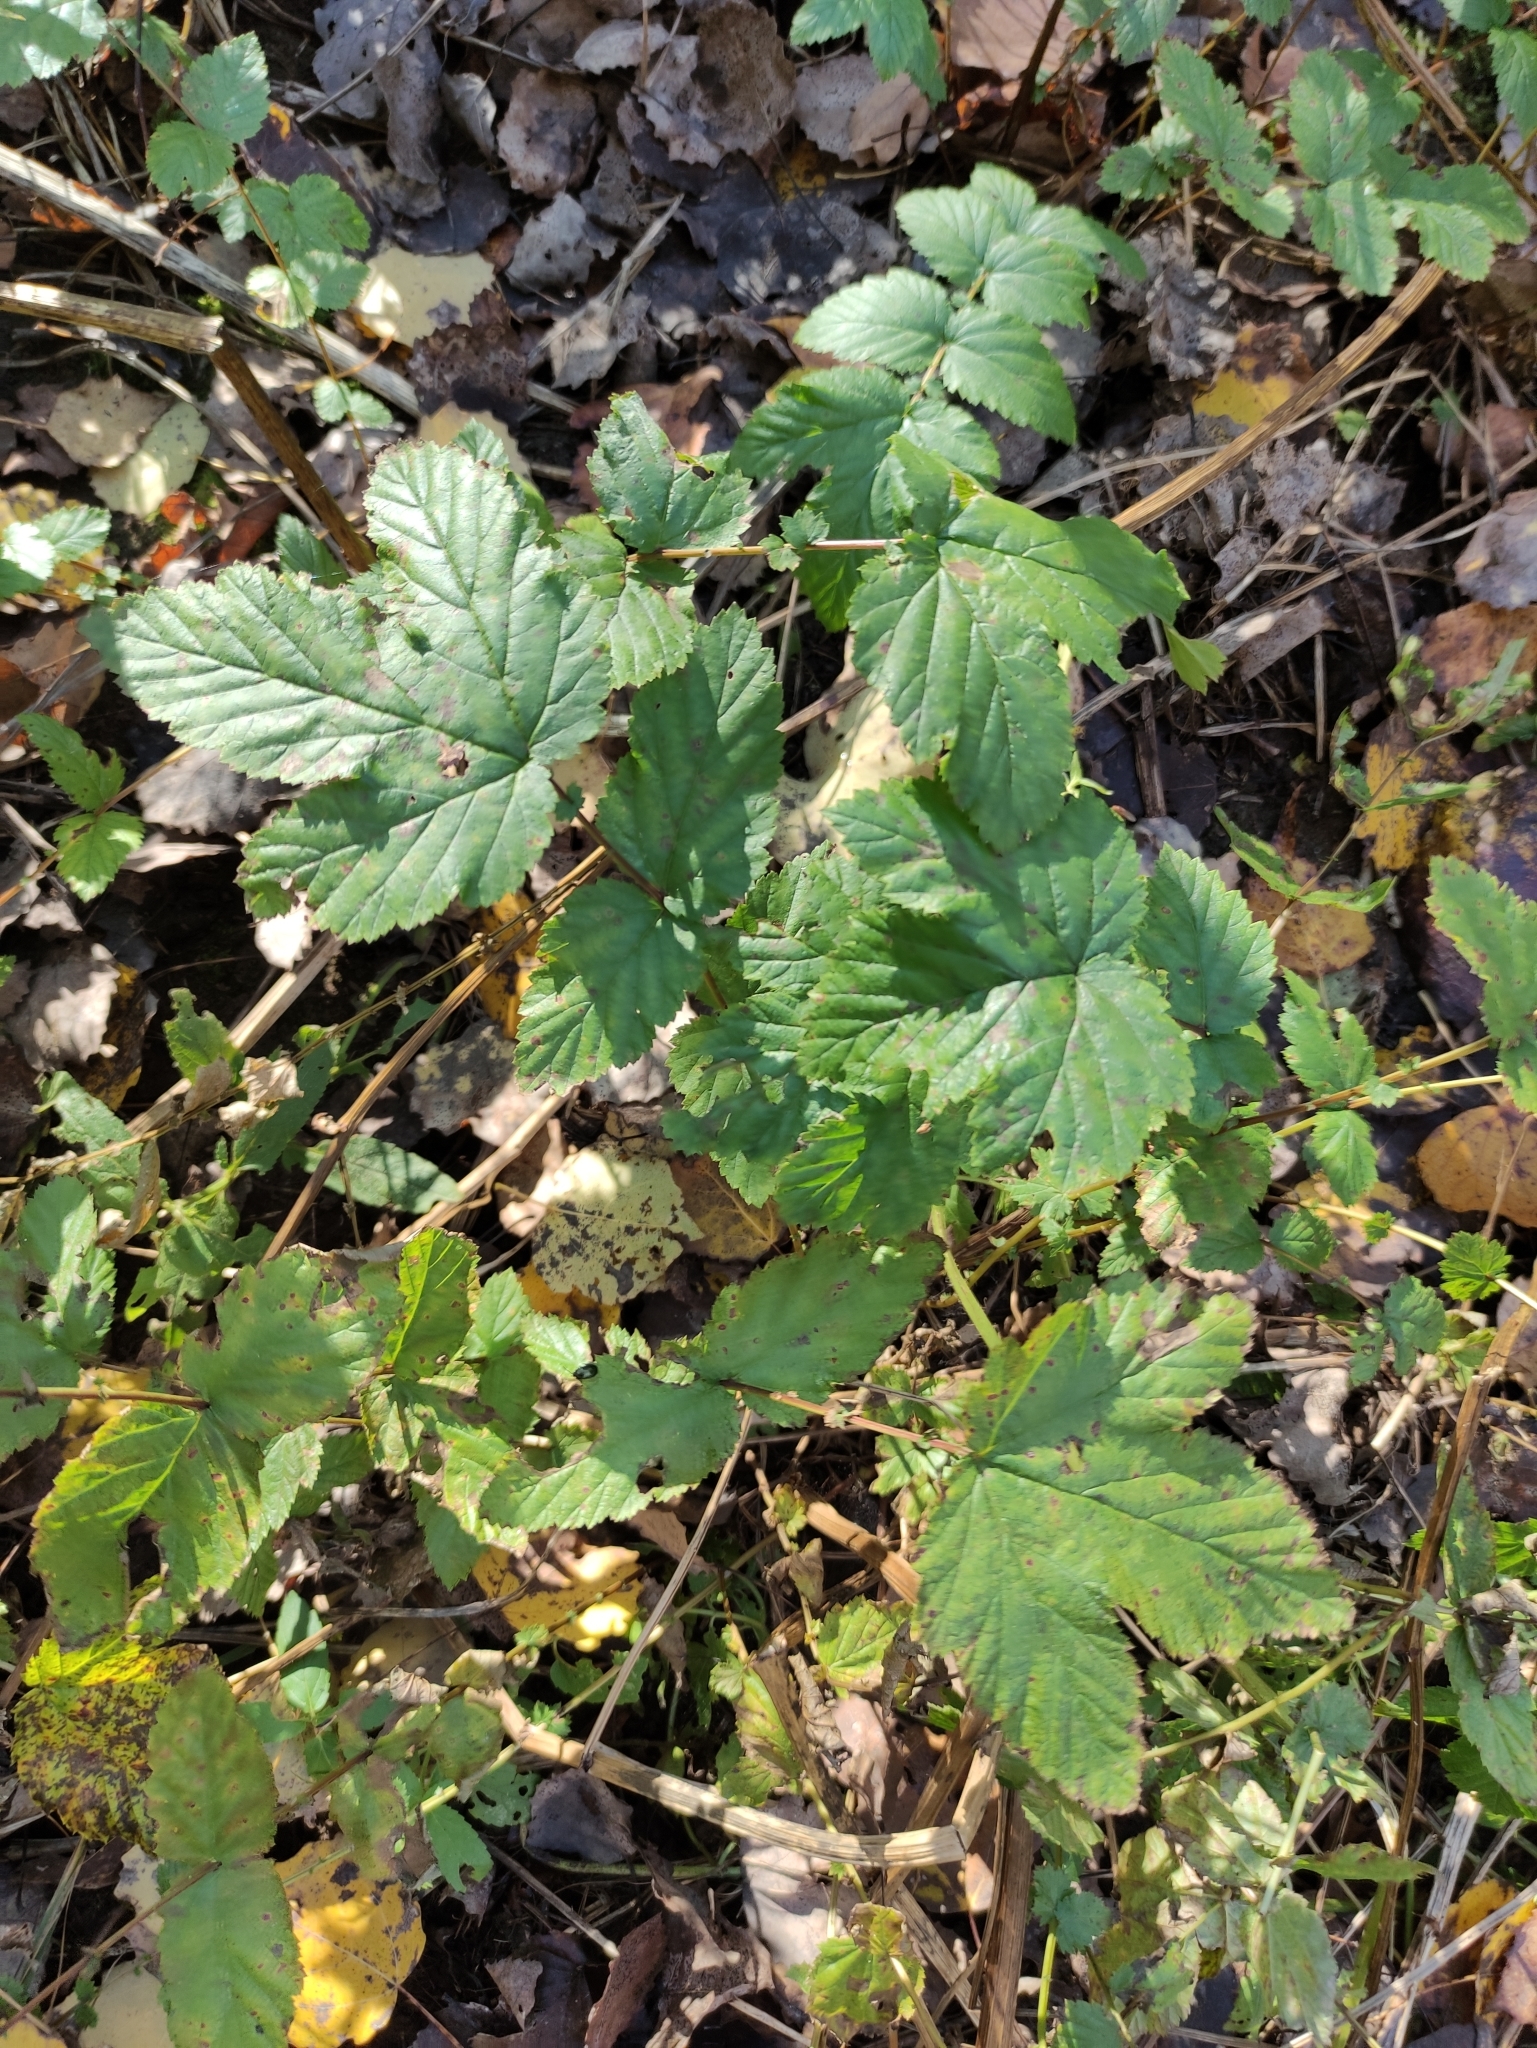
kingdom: Plantae
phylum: Tracheophyta
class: Magnoliopsida
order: Rosales
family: Rosaceae
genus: Filipendula
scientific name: Filipendula ulmaria
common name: Meadowsweet
